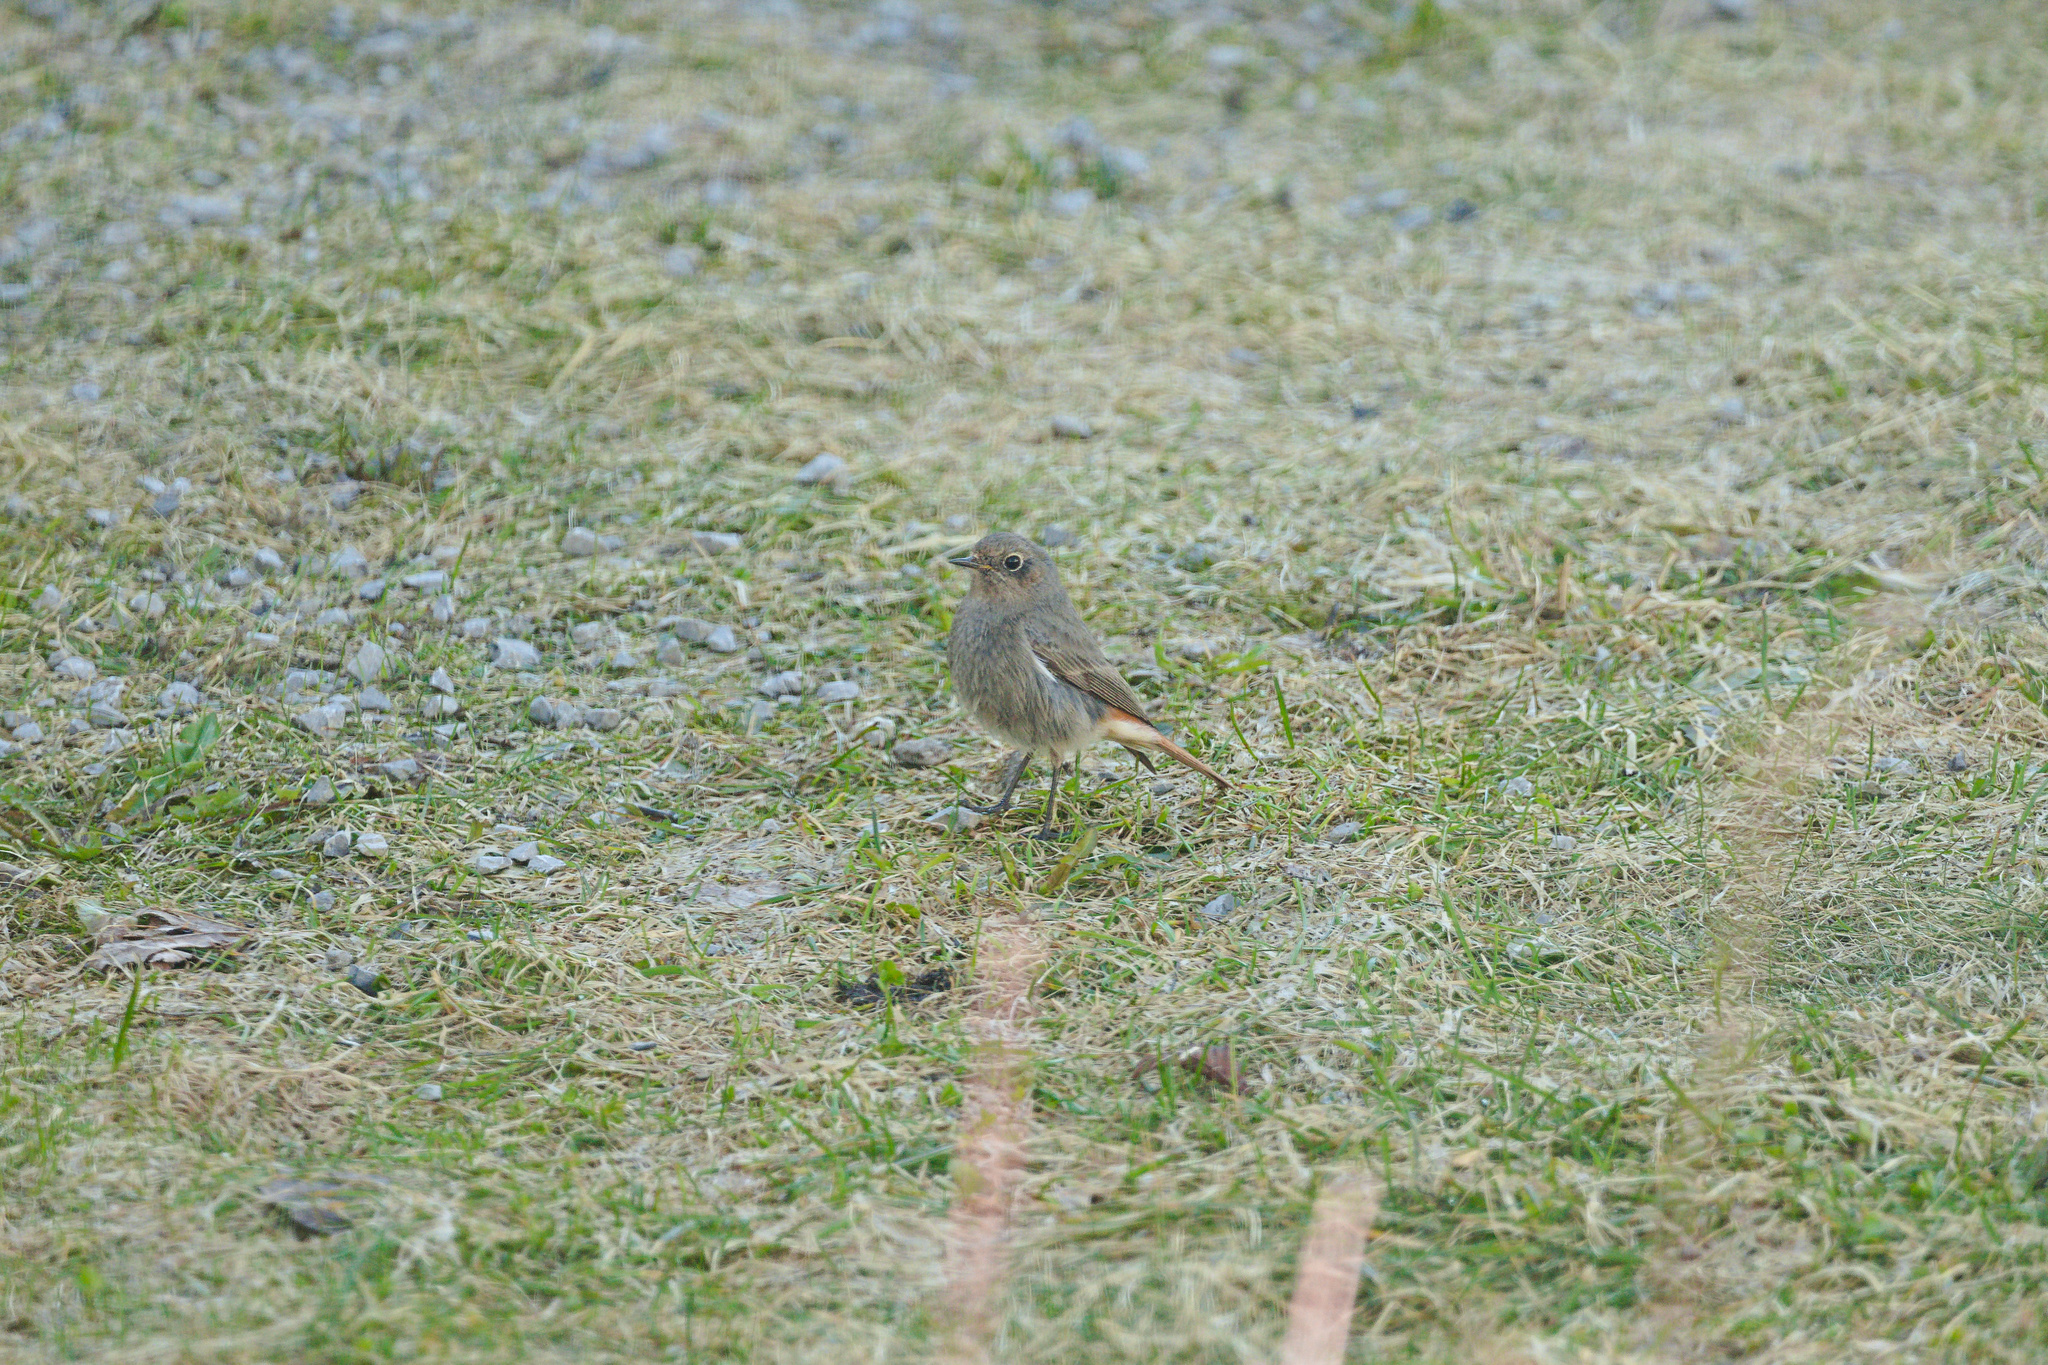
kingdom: Animalia
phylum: Chordata
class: Aves
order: Passeriformes
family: Muscicapidae
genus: Phoenicurus
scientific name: Phoenicurus ochruros
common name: Black redstart
